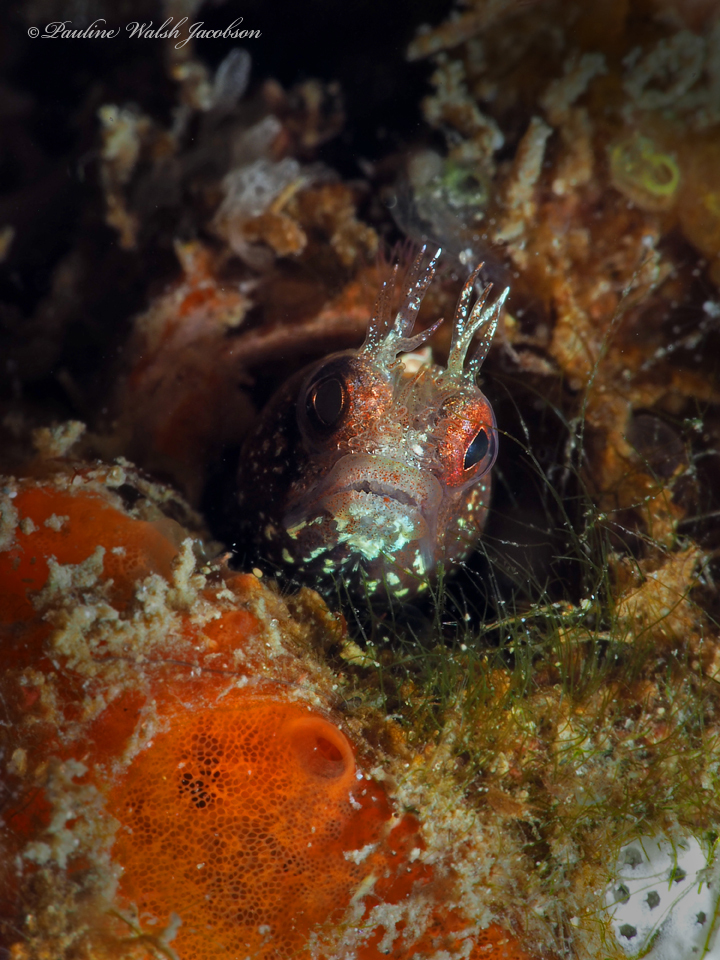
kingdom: Animalia
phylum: Chordata
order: Perciformes
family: Chaenopsidae
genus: Acanthemblemaria
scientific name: Acanthemblemaria aspera
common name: Roughhead blenny
